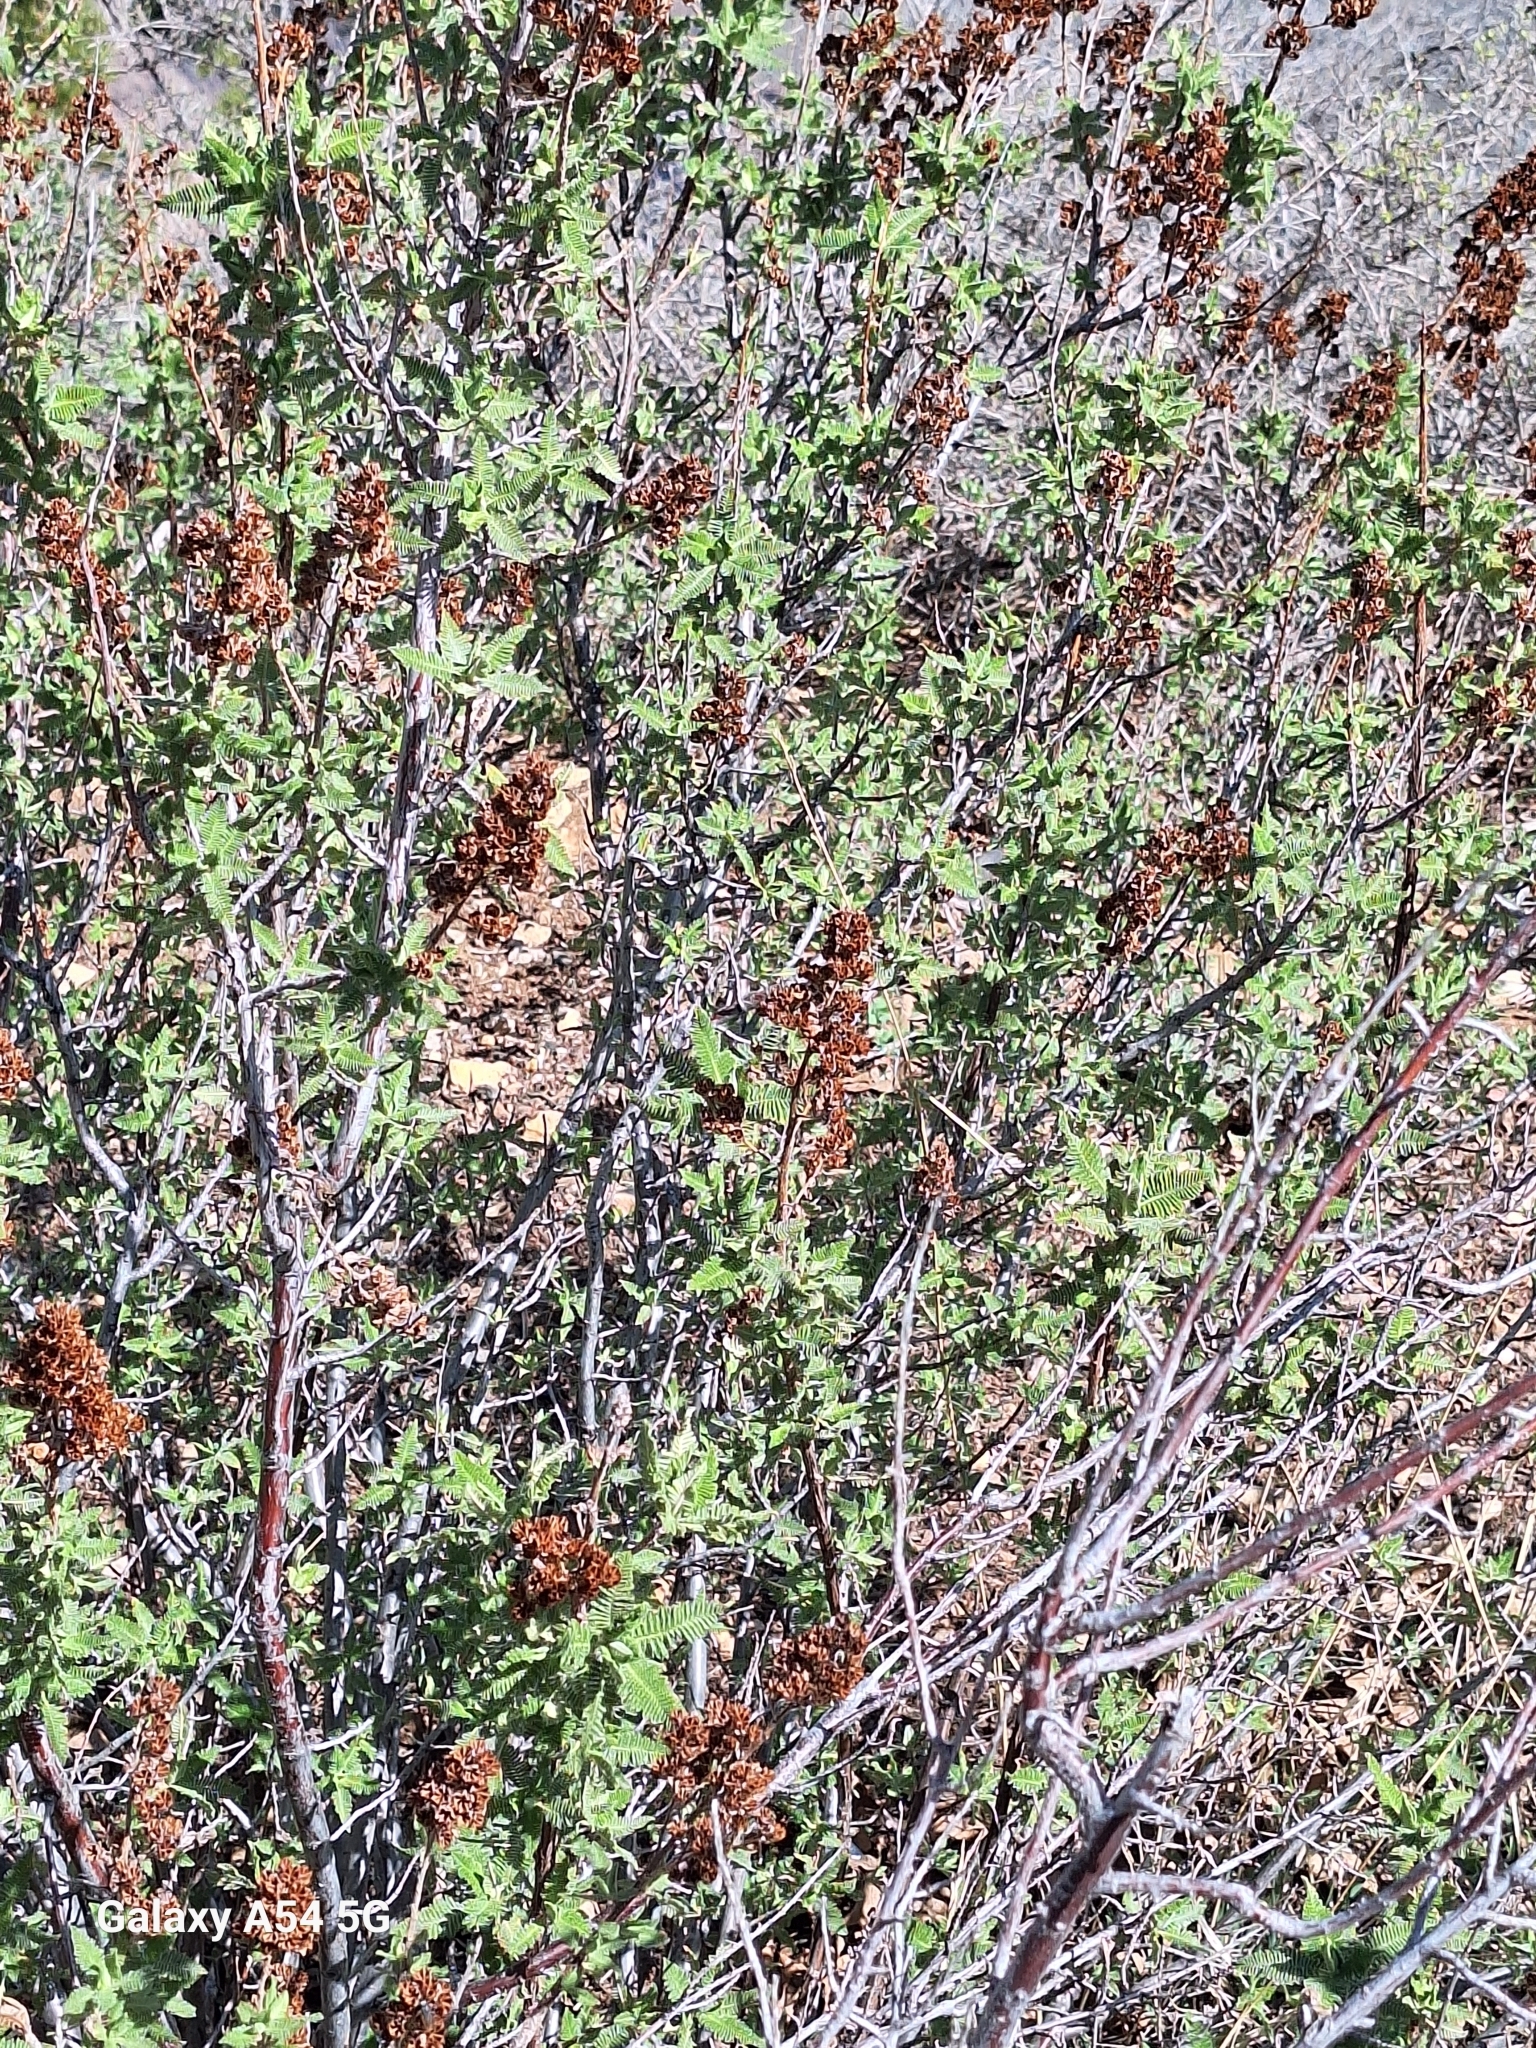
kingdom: Plantae
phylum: Tracheophyta
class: Magnoliopsida
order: Rosales
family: Rosaceae
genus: Chamaebatiaria
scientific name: Chamaebatiaria millefolium
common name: Fernbush
